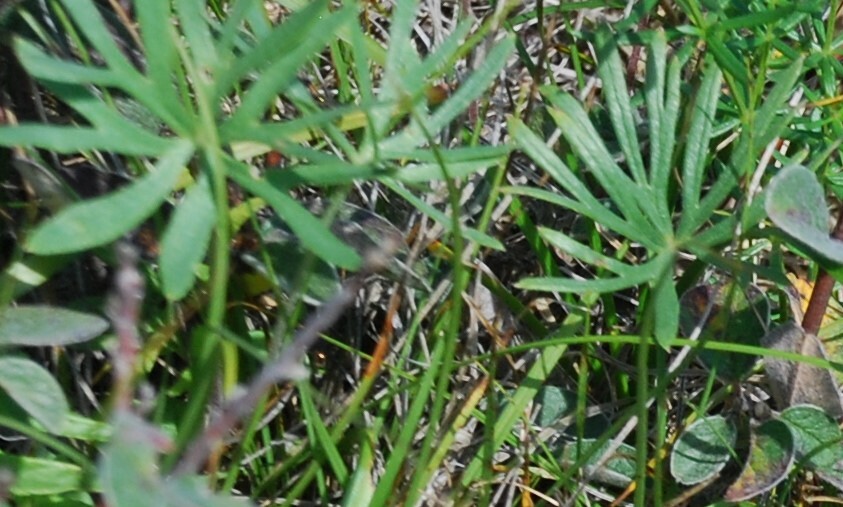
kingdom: Plantae
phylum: Tracheophyta
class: Magnoliopsida
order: Ranunculales
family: Ranunculaceae
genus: Delphinium
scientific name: Delphinium grandiflorum
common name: Siberian larkspur
